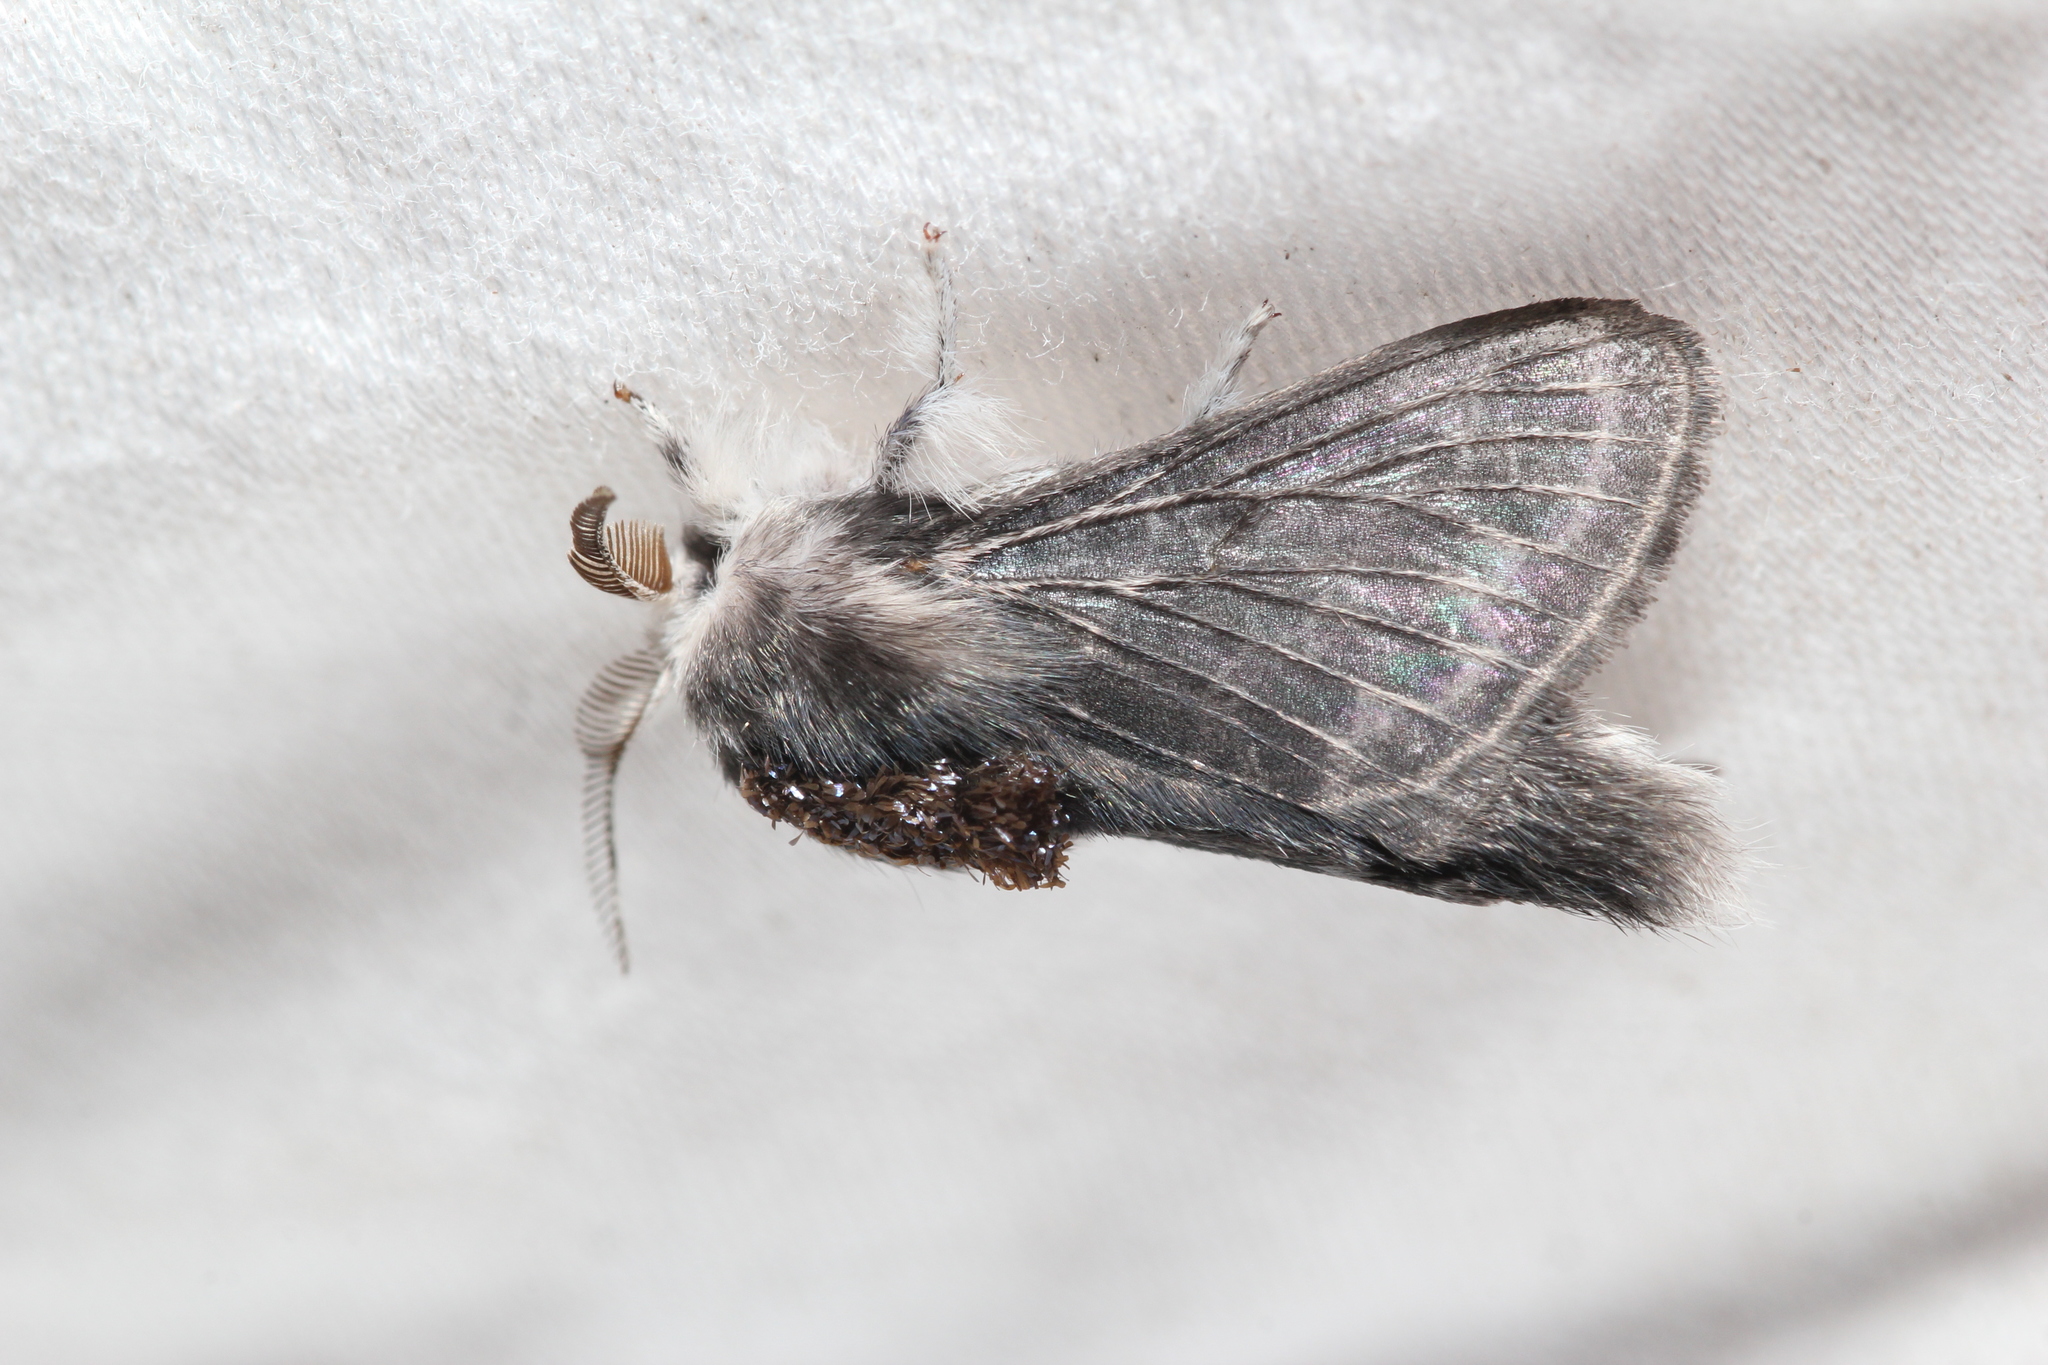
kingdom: Animalia
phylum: Arthropoda
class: Insecta
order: Lepidoptera
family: Lasiocampidae
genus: Tolype
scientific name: Tolype laricis
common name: Larch tolype moth
